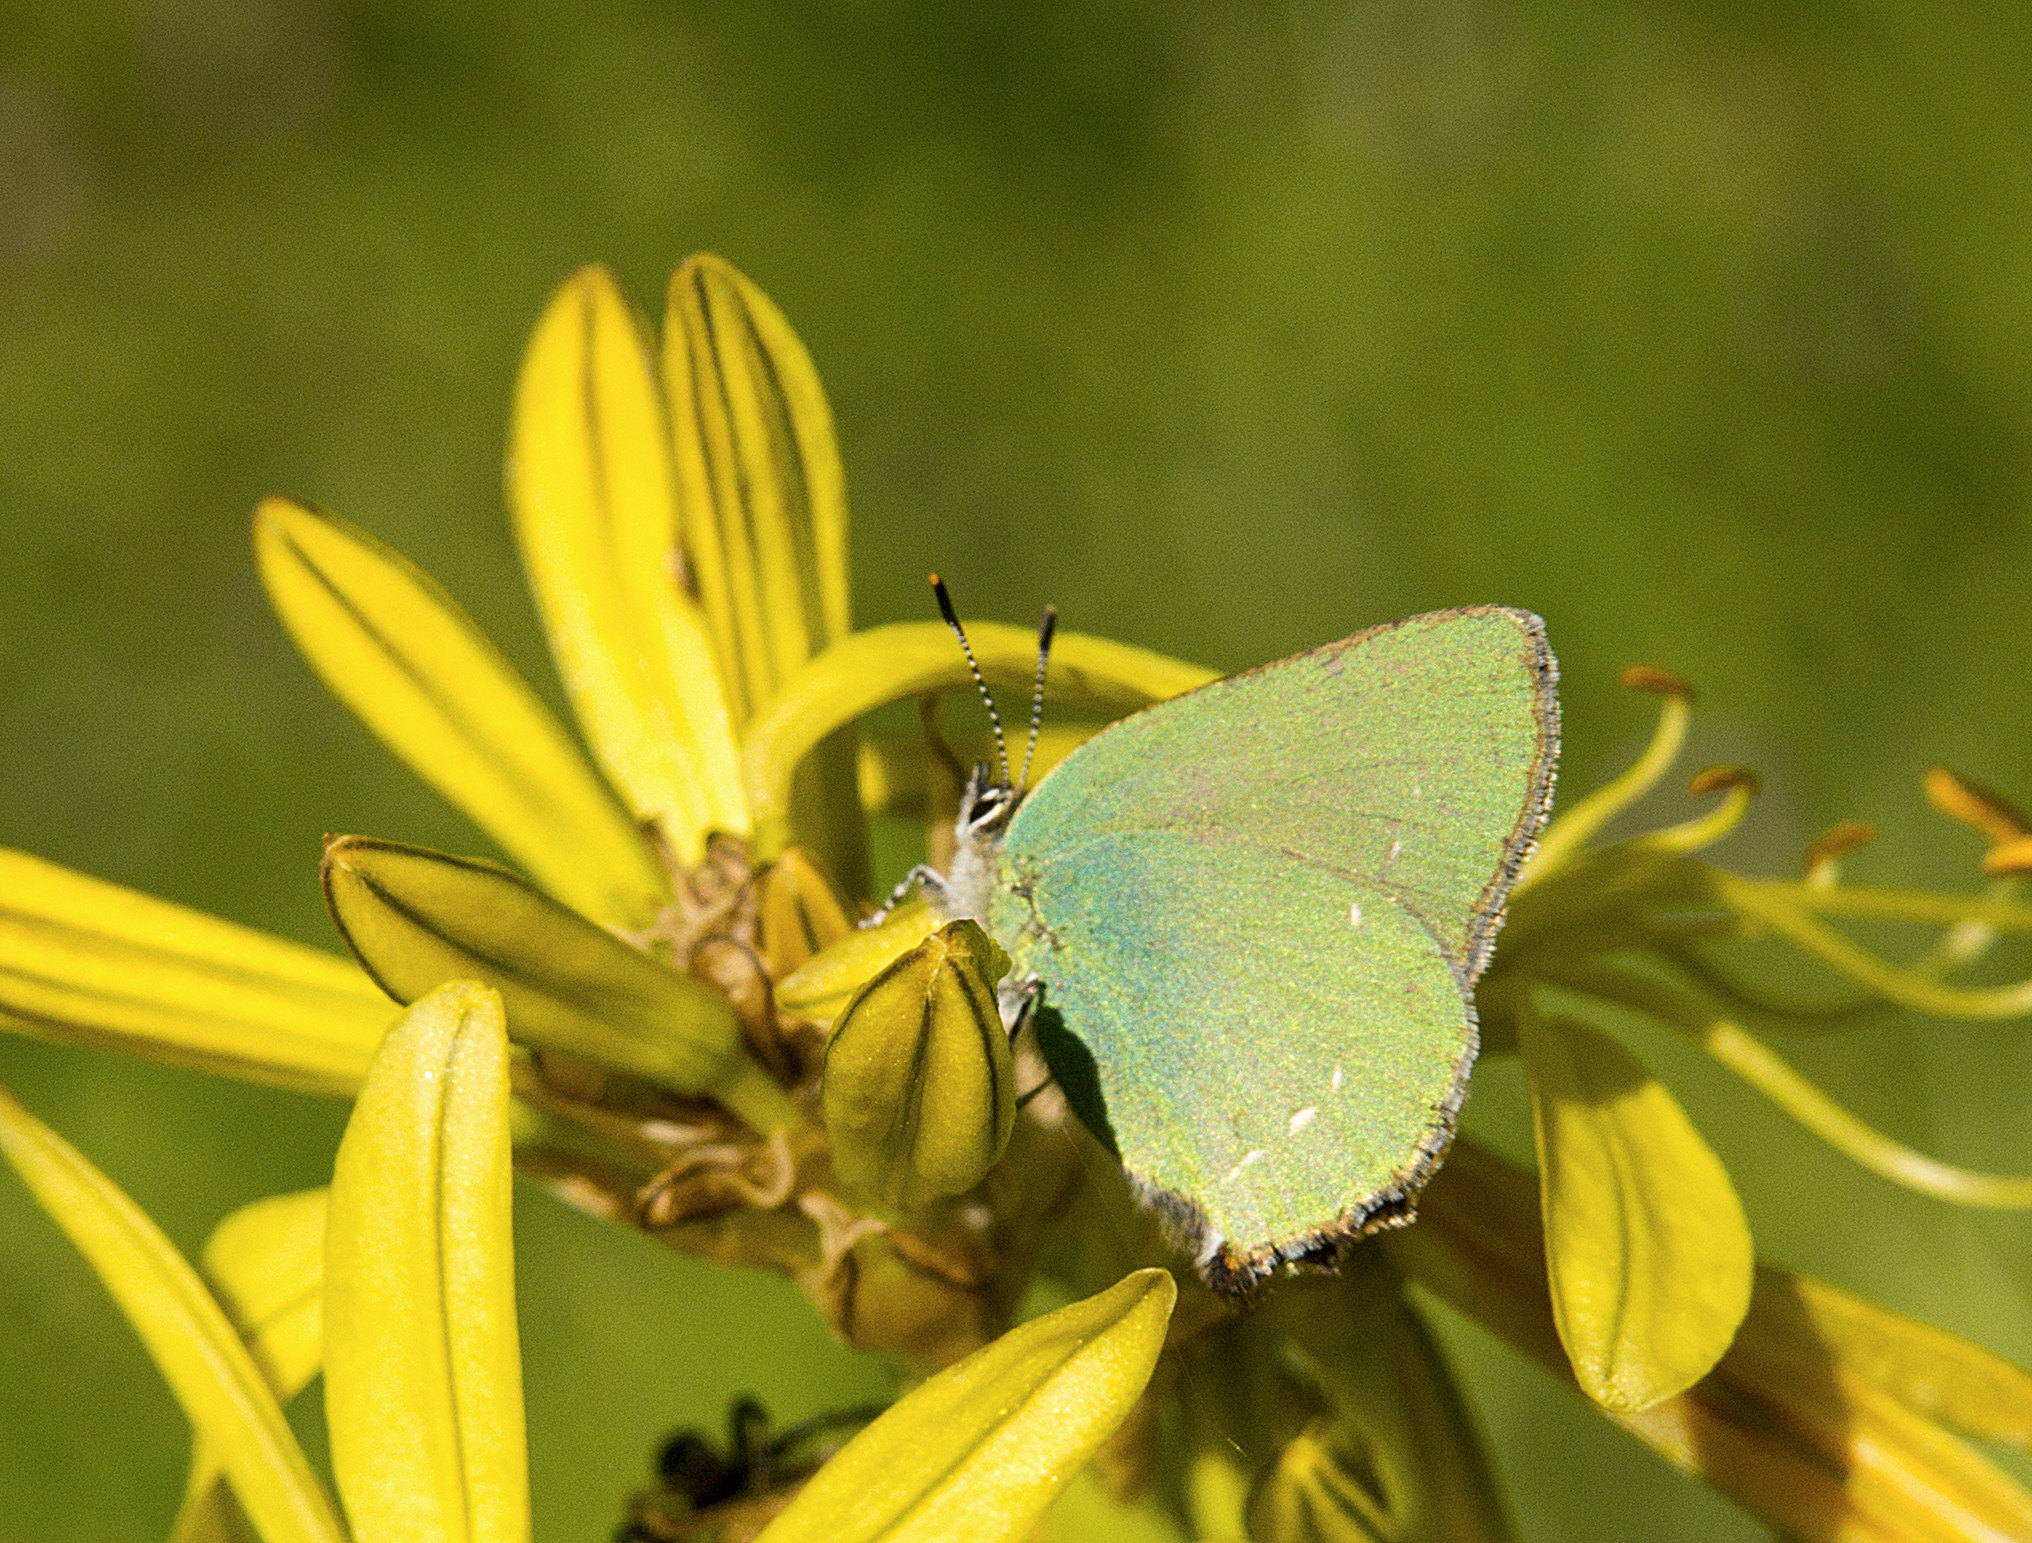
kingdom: Animalia
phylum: Arthropoda
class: Insecta
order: Lepidoptera
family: Lycaenidae
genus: Callophrys
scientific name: Callophrys rubi
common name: Green hairstreak
